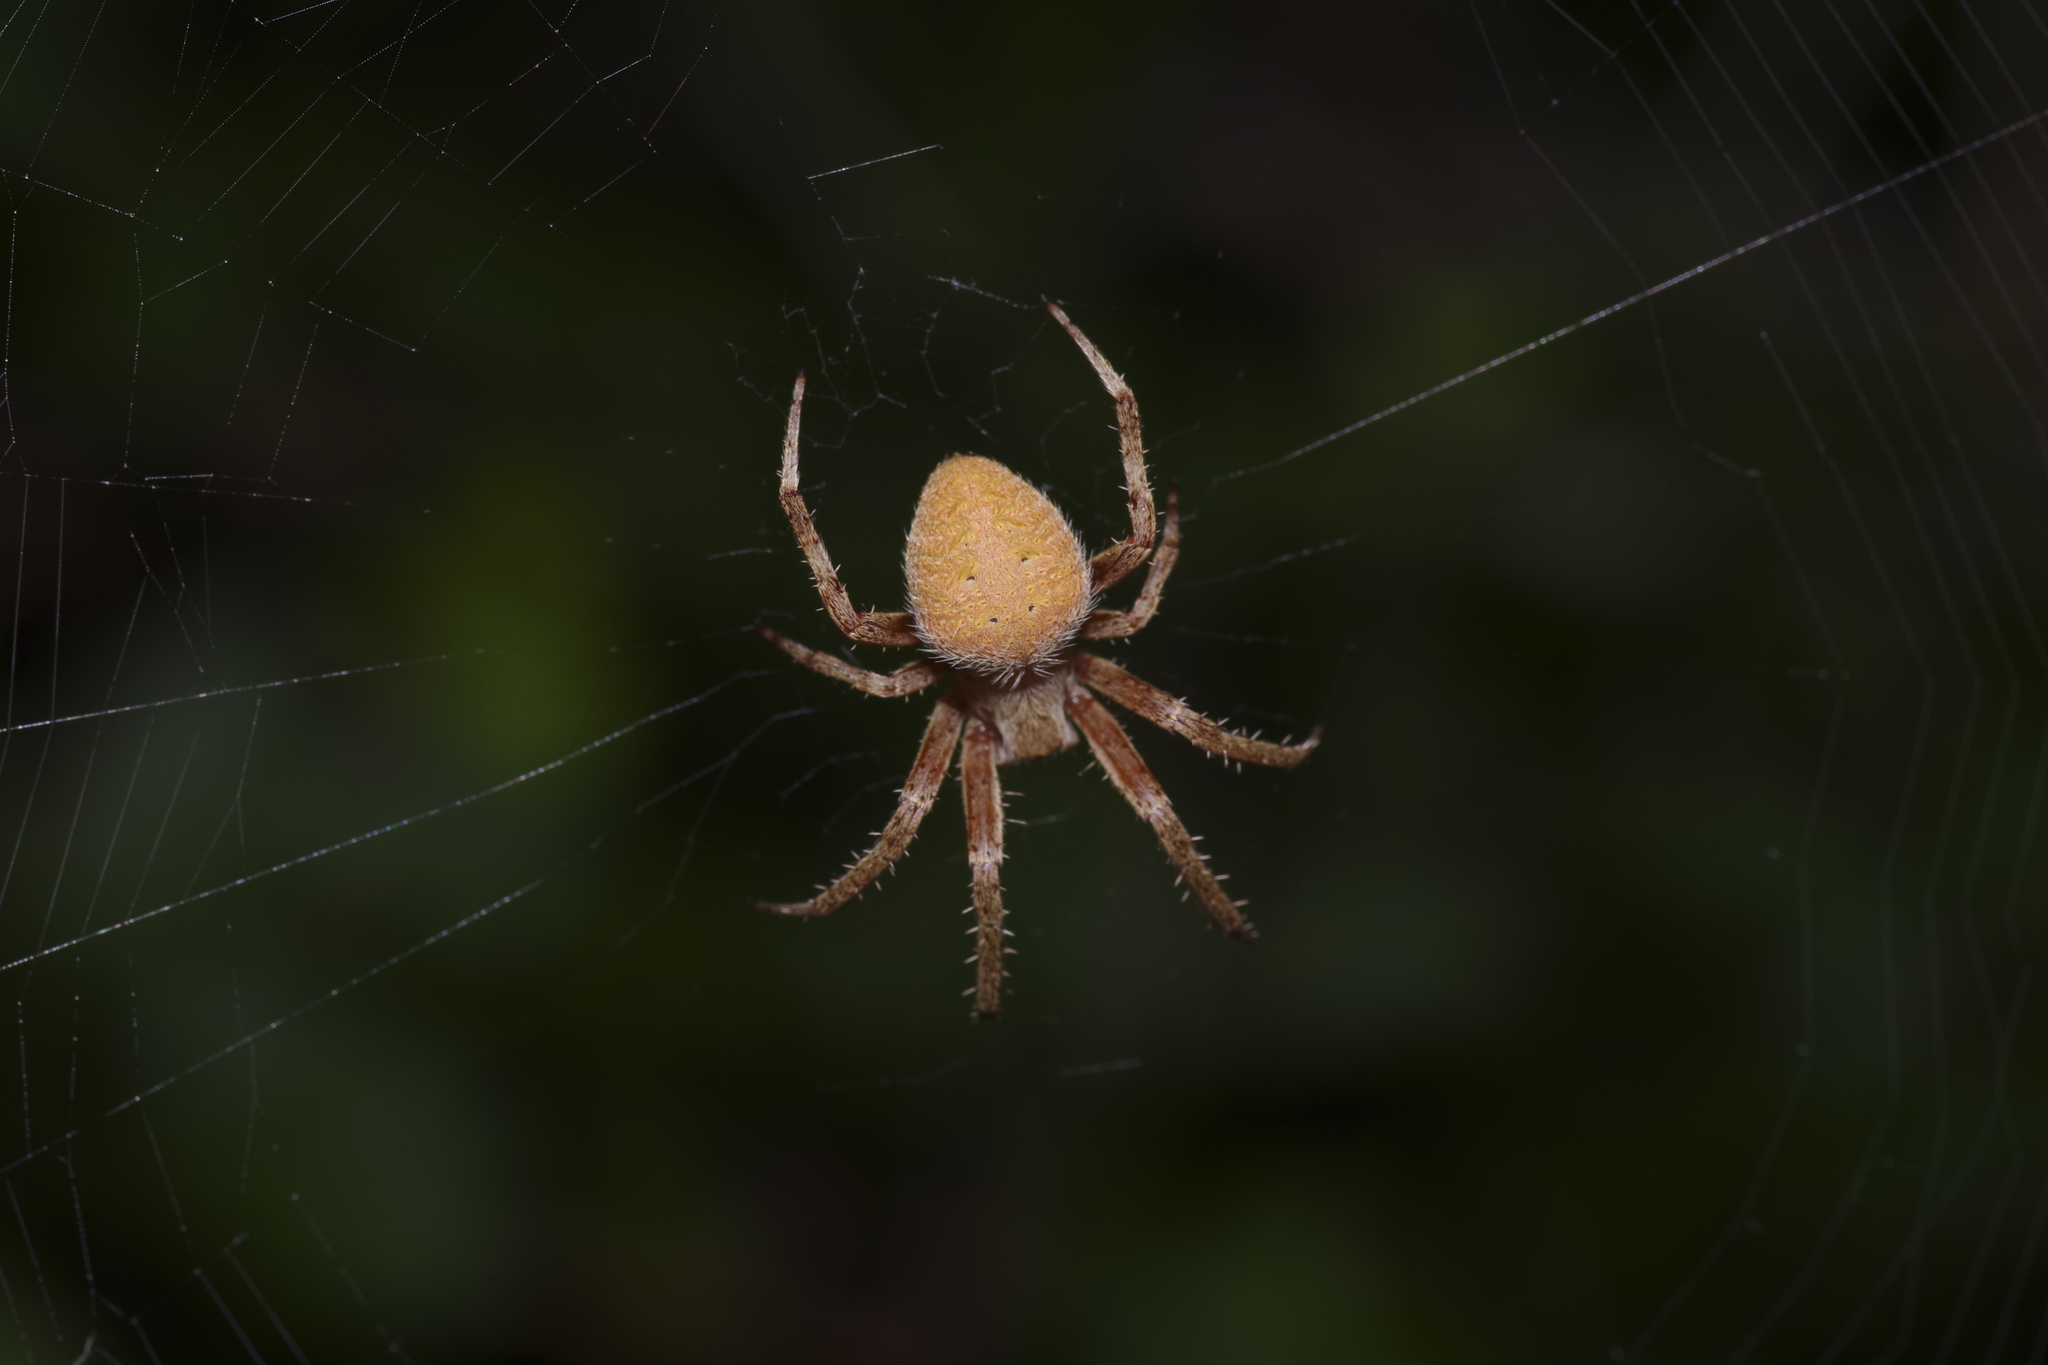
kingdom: Animalia
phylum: Arthropoda
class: Arachnida
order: Araneae
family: Araneidae
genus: Neoscona
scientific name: Neoscona crucifera
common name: Spotted orbweaver
